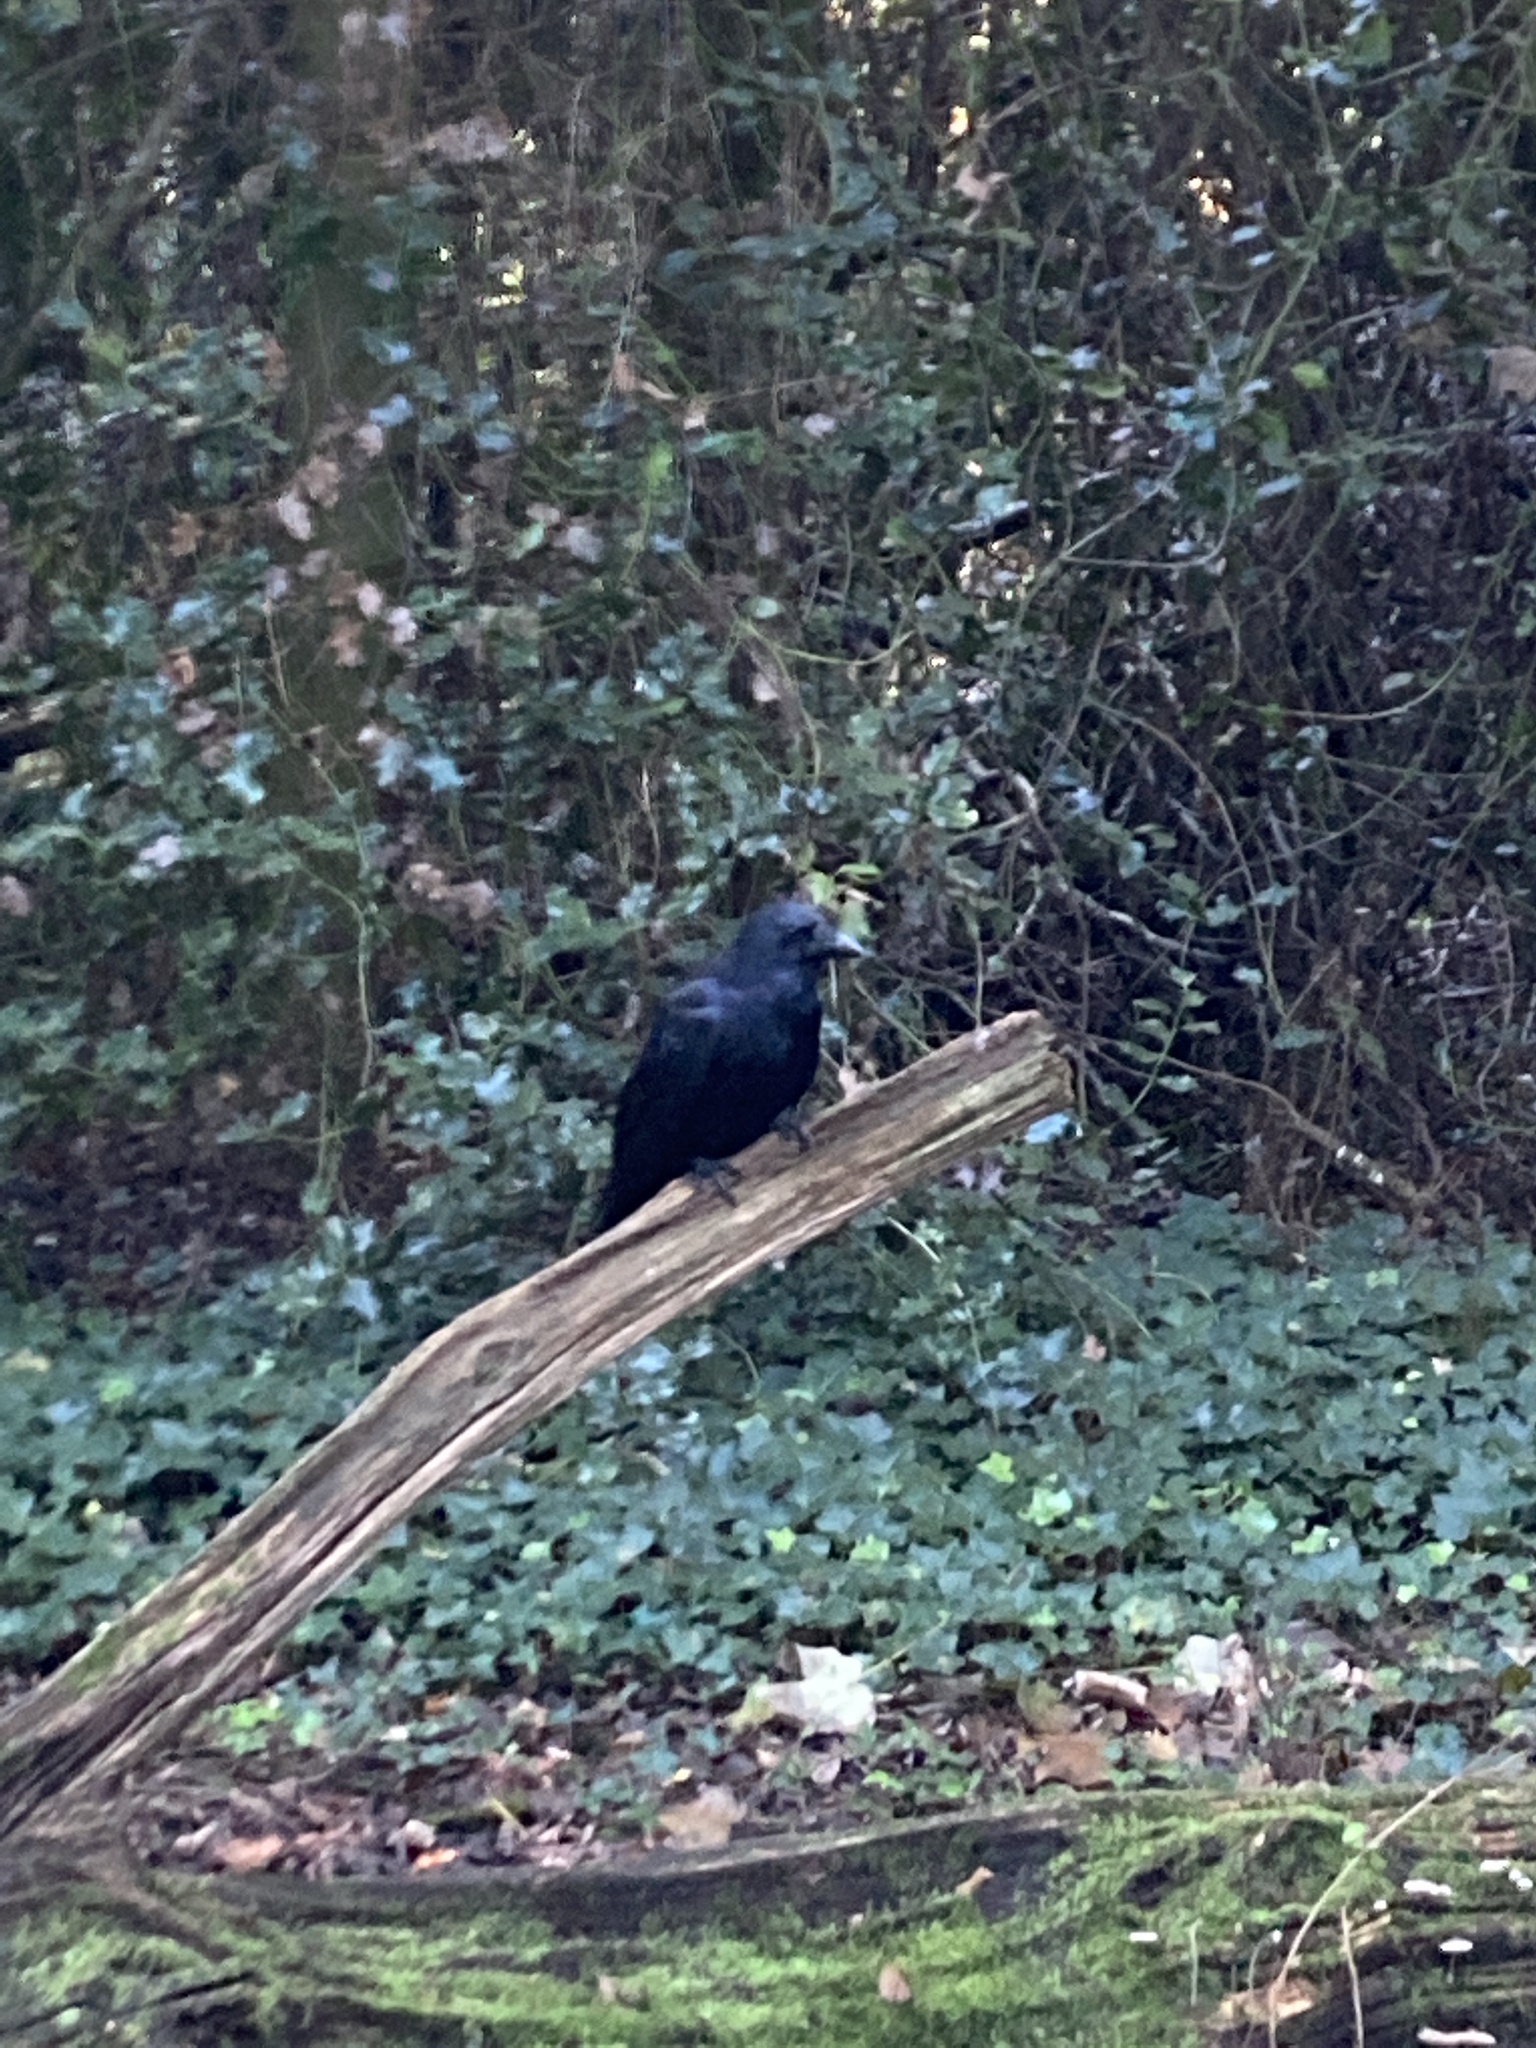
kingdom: Animalia
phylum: Chordata
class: Aves
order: Passeriformes
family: Corvidae
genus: Corvus
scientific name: Corvus corone
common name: Carrion crow
